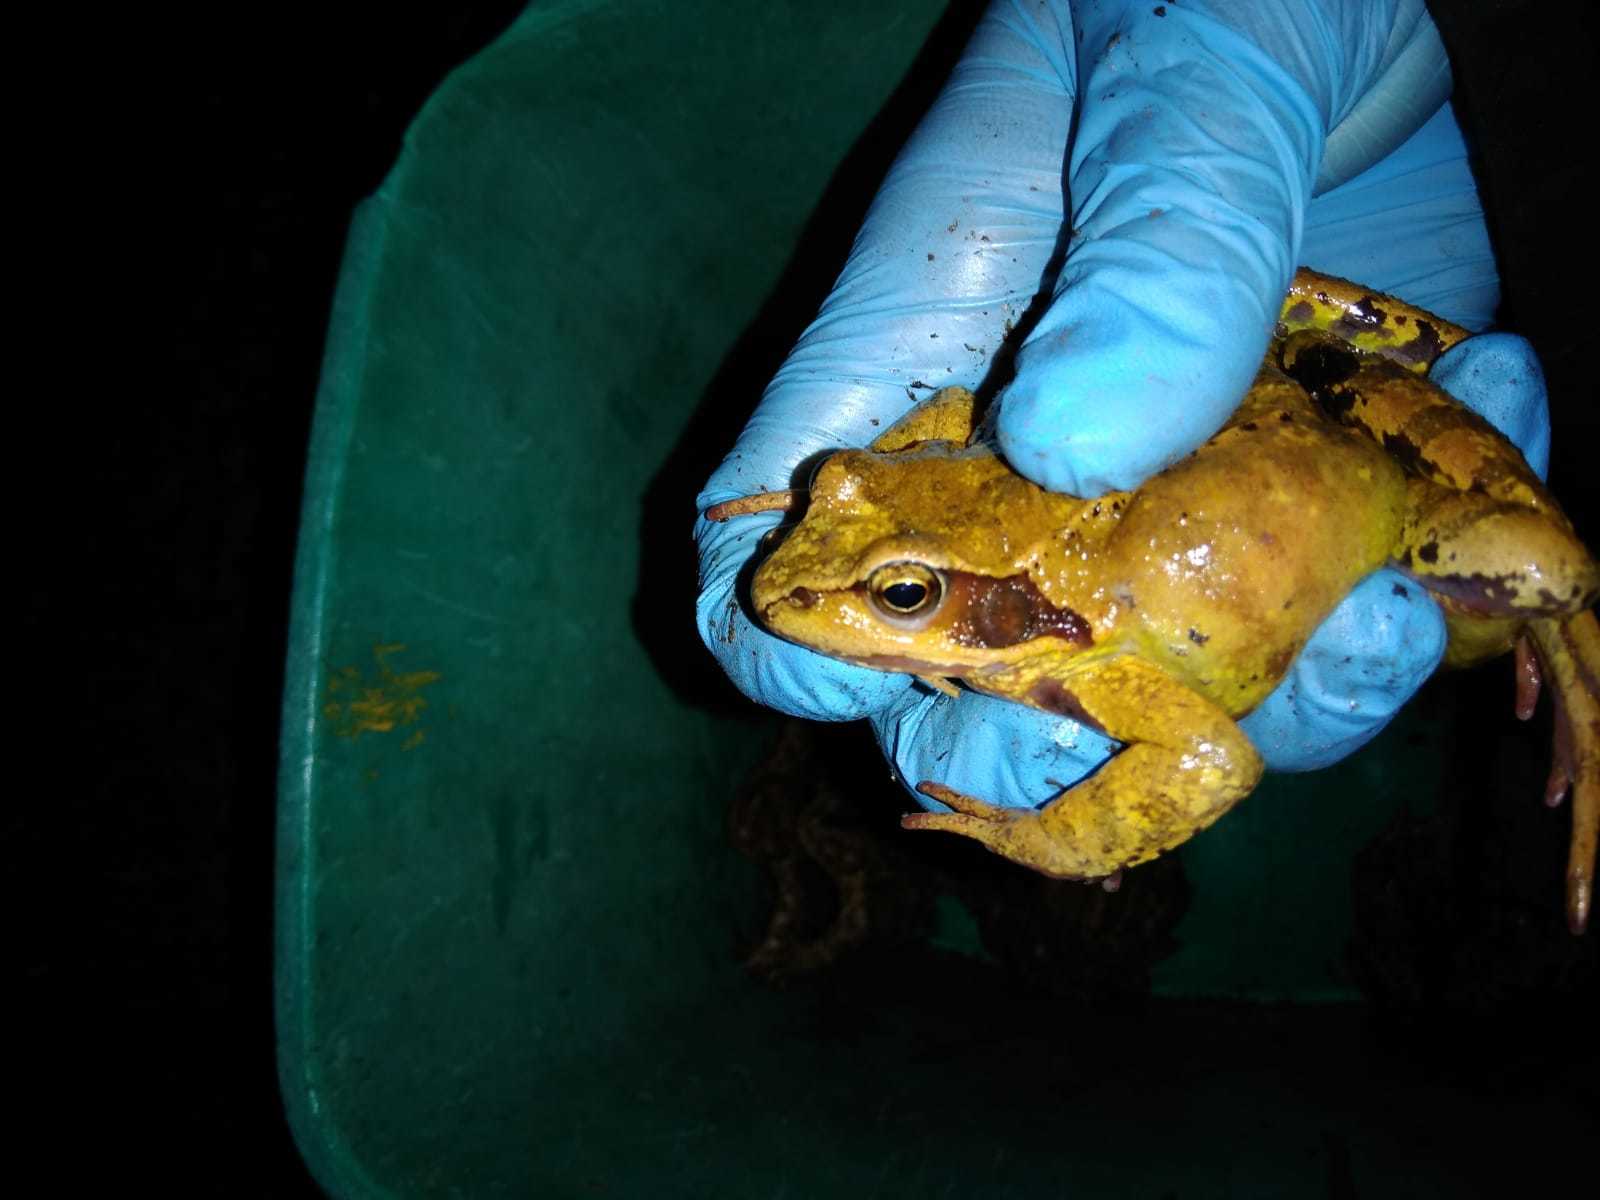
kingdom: Animalia
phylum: Chordata
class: Amphibia
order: Anura
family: Ranidae
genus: Rana
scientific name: Rana temporaria
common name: Common frog
